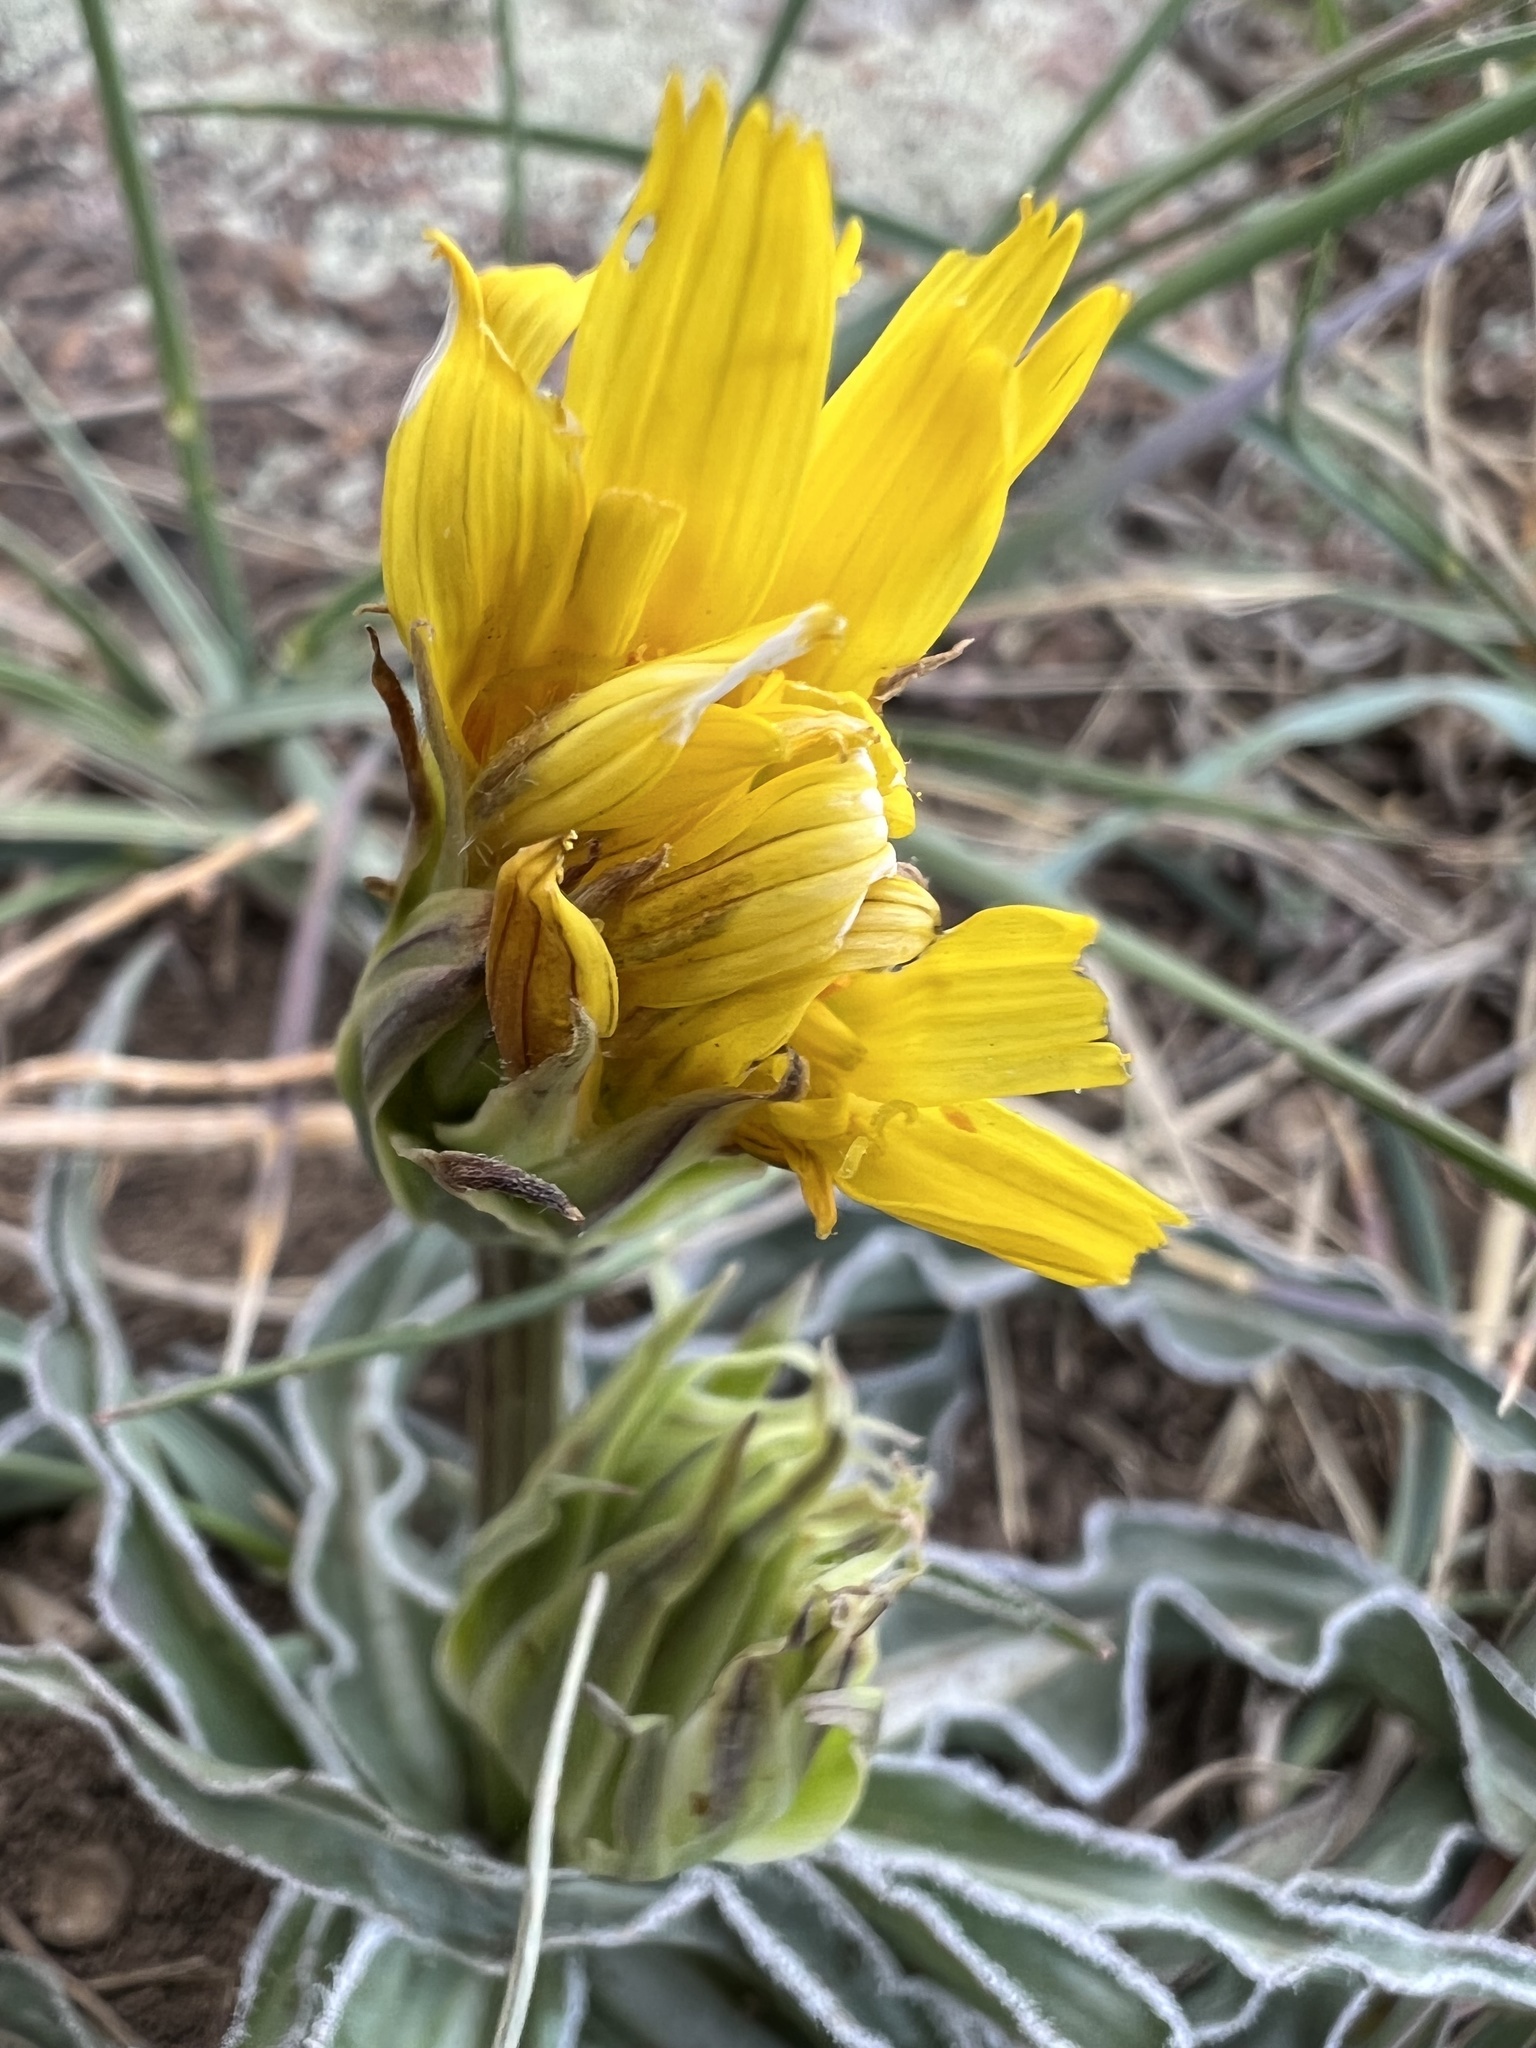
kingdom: Plantae
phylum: Tracheophyta
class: Magnoliopsida
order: Asterales
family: Asteraceae
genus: Microseris
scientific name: Microseris cuspidata
